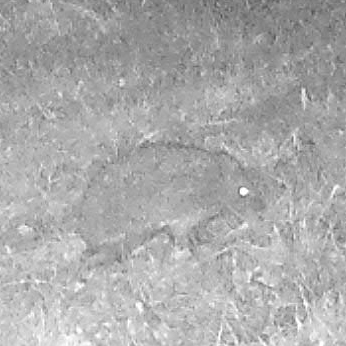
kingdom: Animalia
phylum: Chordata
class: Mammalia
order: Erinaceomorpha
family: Erinaceidae
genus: Erinaceus
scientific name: Erinaceus europaeus
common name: West european hedgehog
